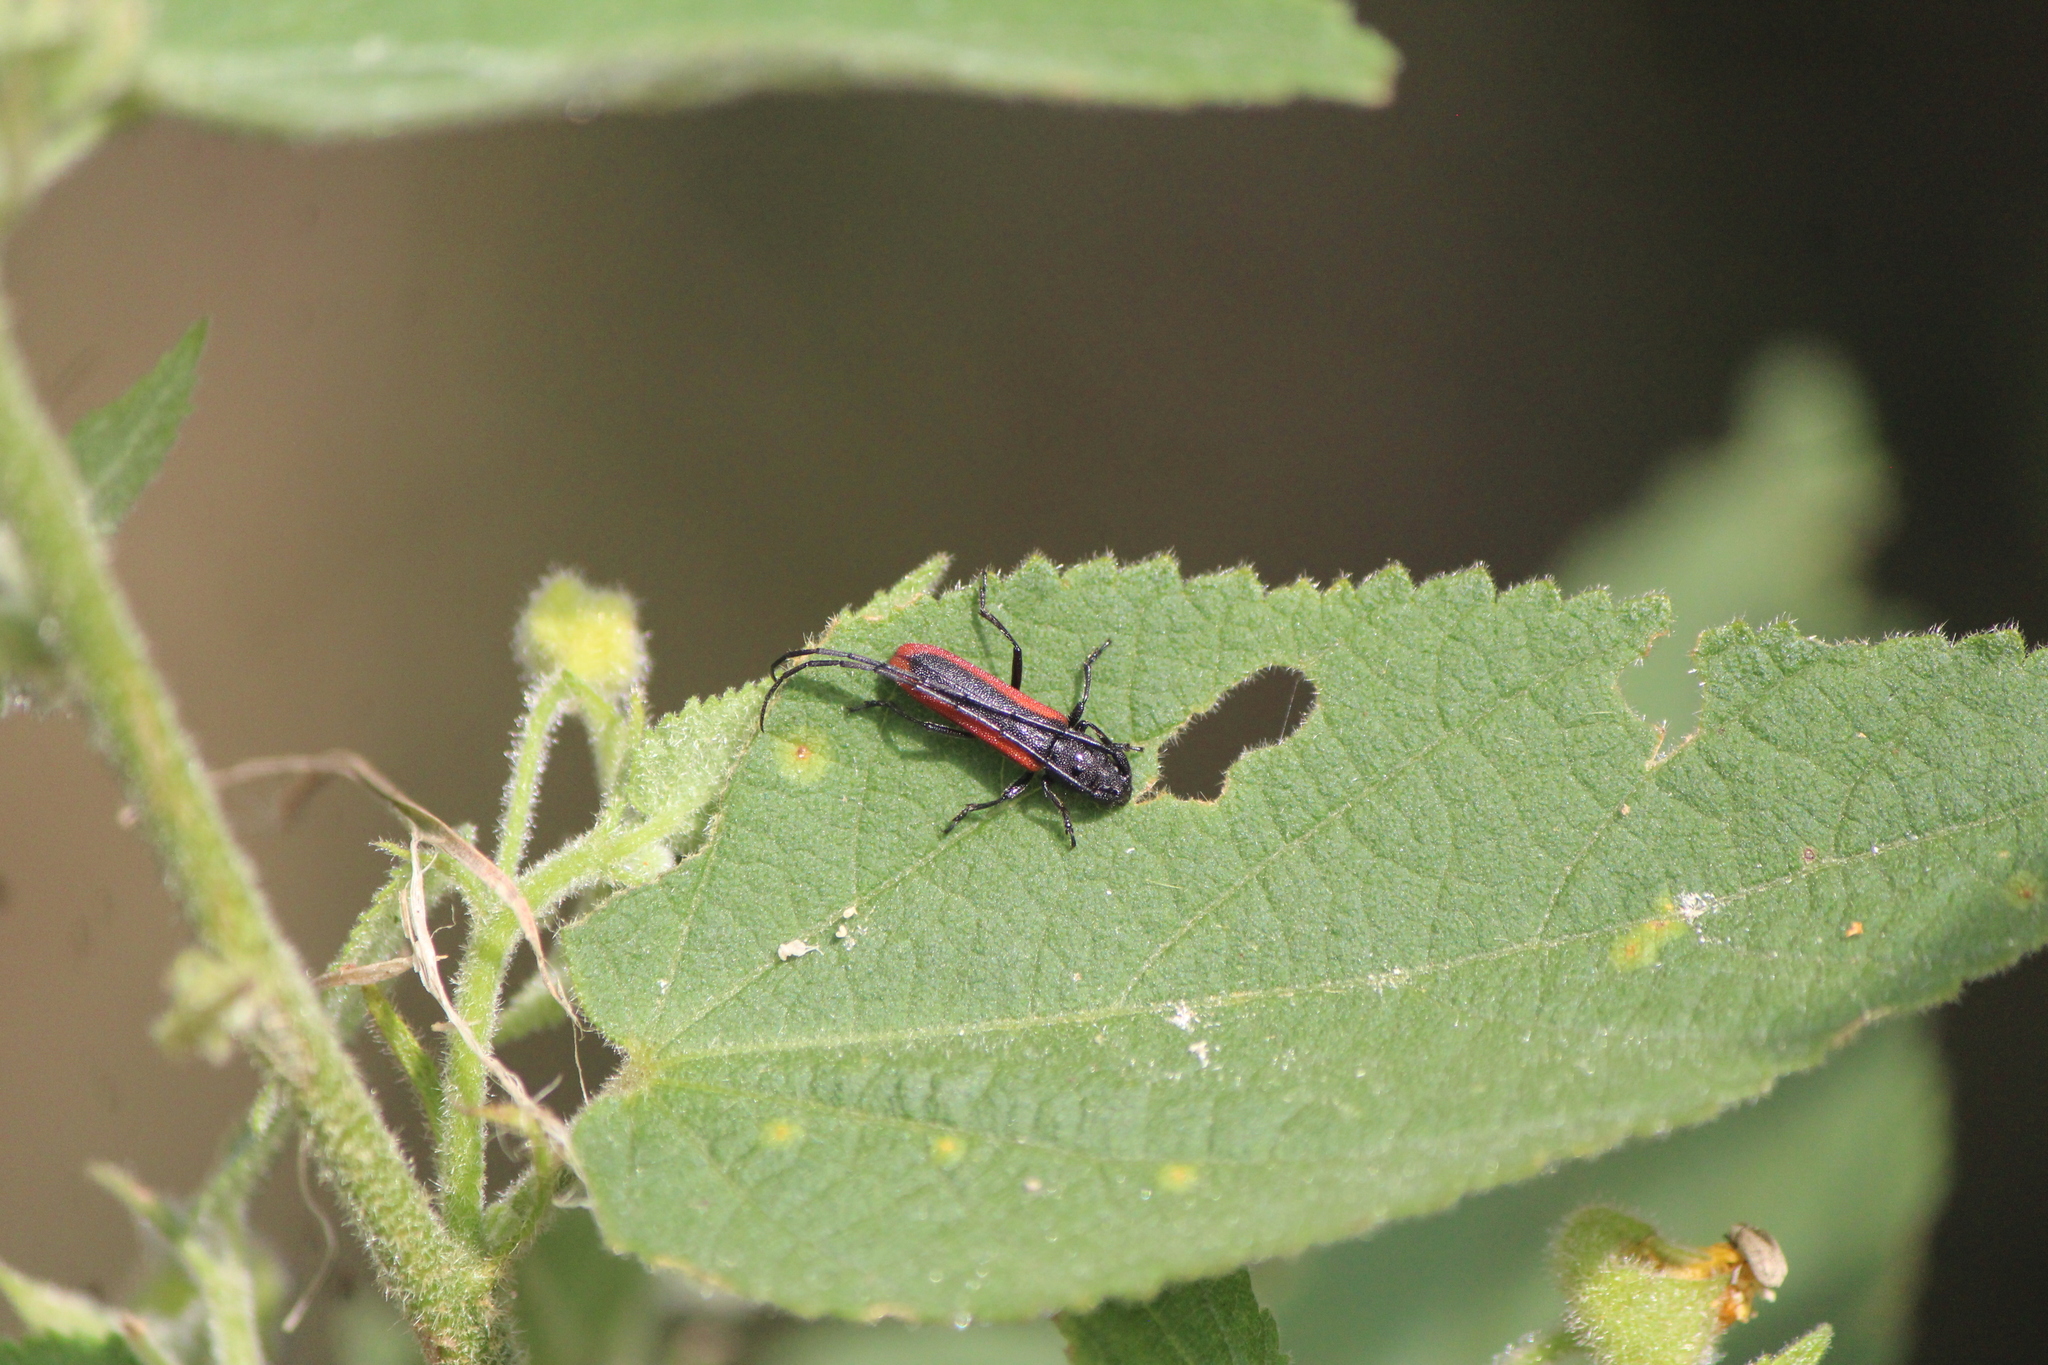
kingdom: Animalia
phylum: Arthropoda
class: Insecta
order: Coleoptera
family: Cerambycidae
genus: Tylosis
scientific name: Tylosis suturalis
